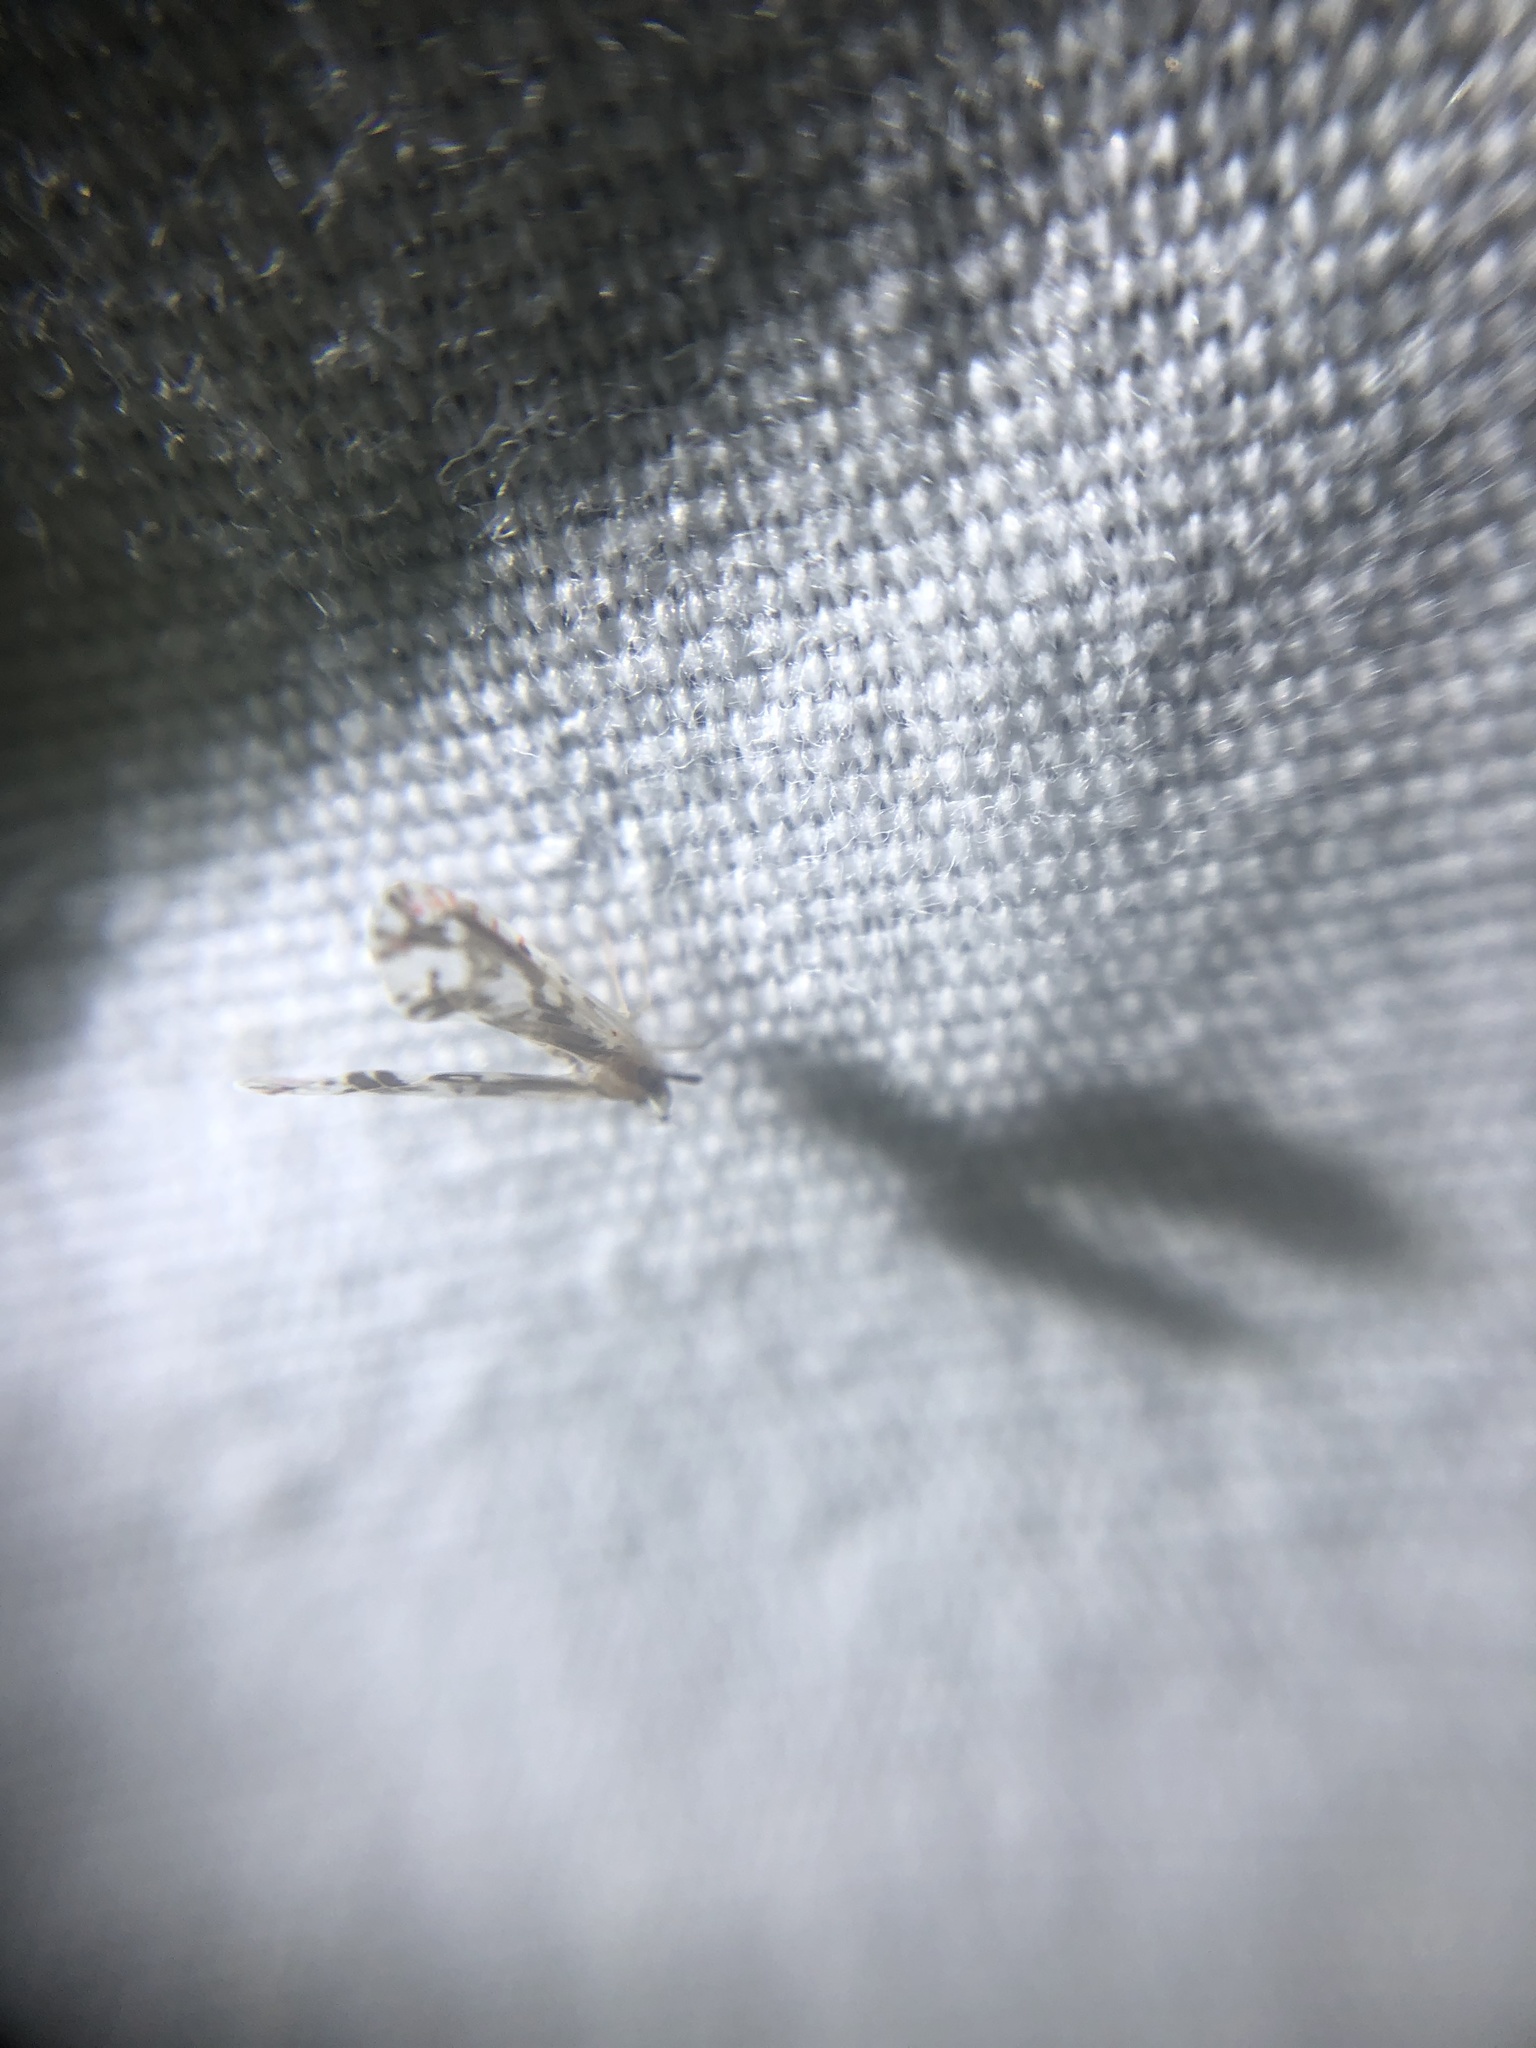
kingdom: Animalia
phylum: Arthropoda
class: Insecta
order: Hemiptera
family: Derbidae
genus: Anotia
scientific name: Anotia fitchi
